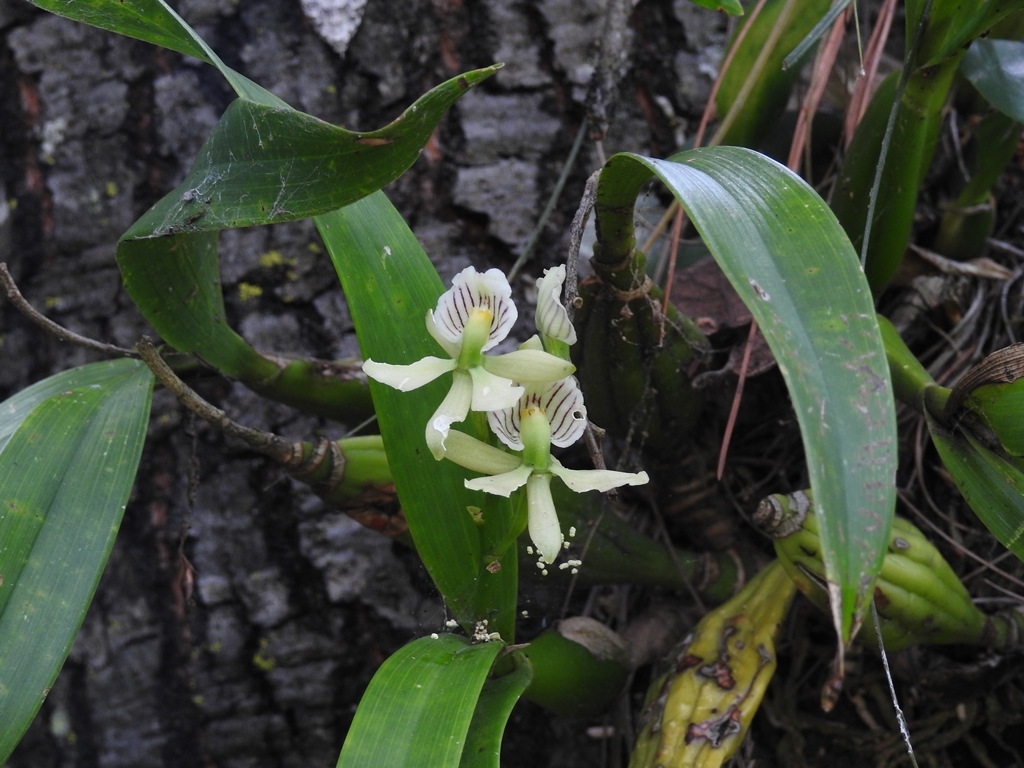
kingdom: Plantae
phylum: Tracheophyta
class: Liliopsida
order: Asparagales
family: Orchidaceae
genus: Prosthechea
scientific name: Prosthechea radiata
